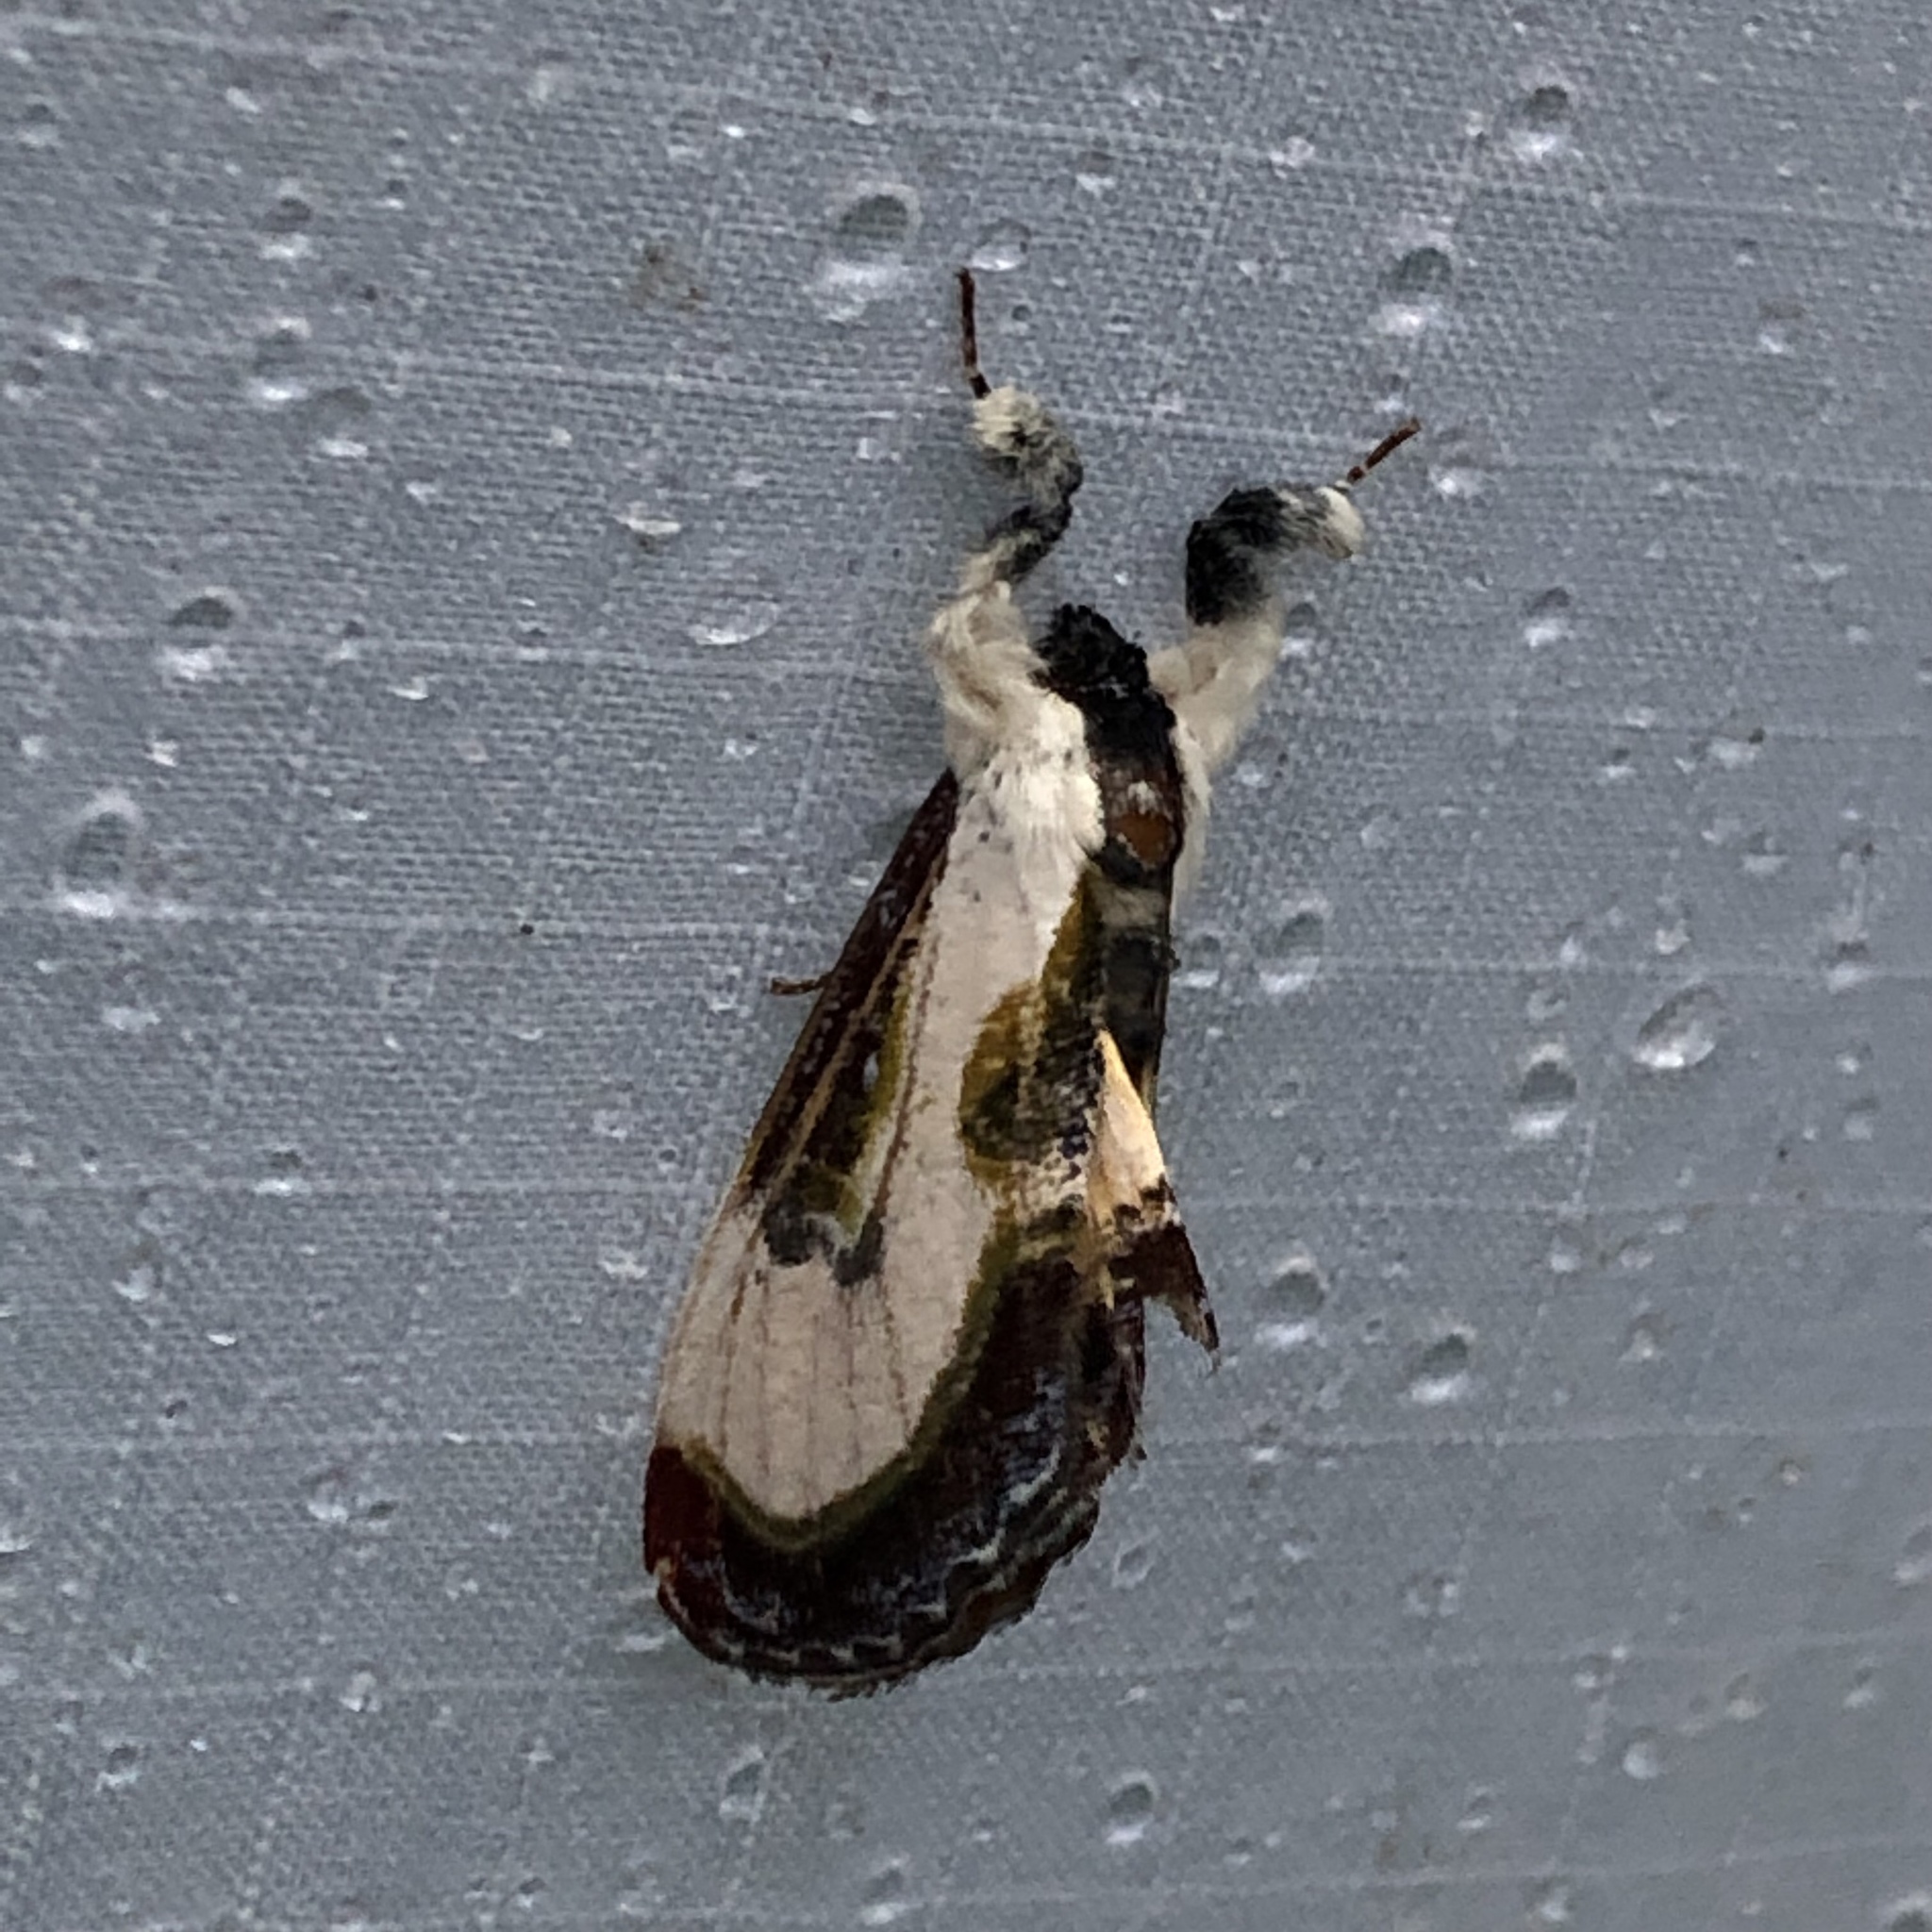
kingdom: Animalia
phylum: Arthropoda
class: Insecta
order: Lepidoptera
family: Noctuidae
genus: Eudryas
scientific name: Eudryas grata
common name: Beautiful wood-nymph
